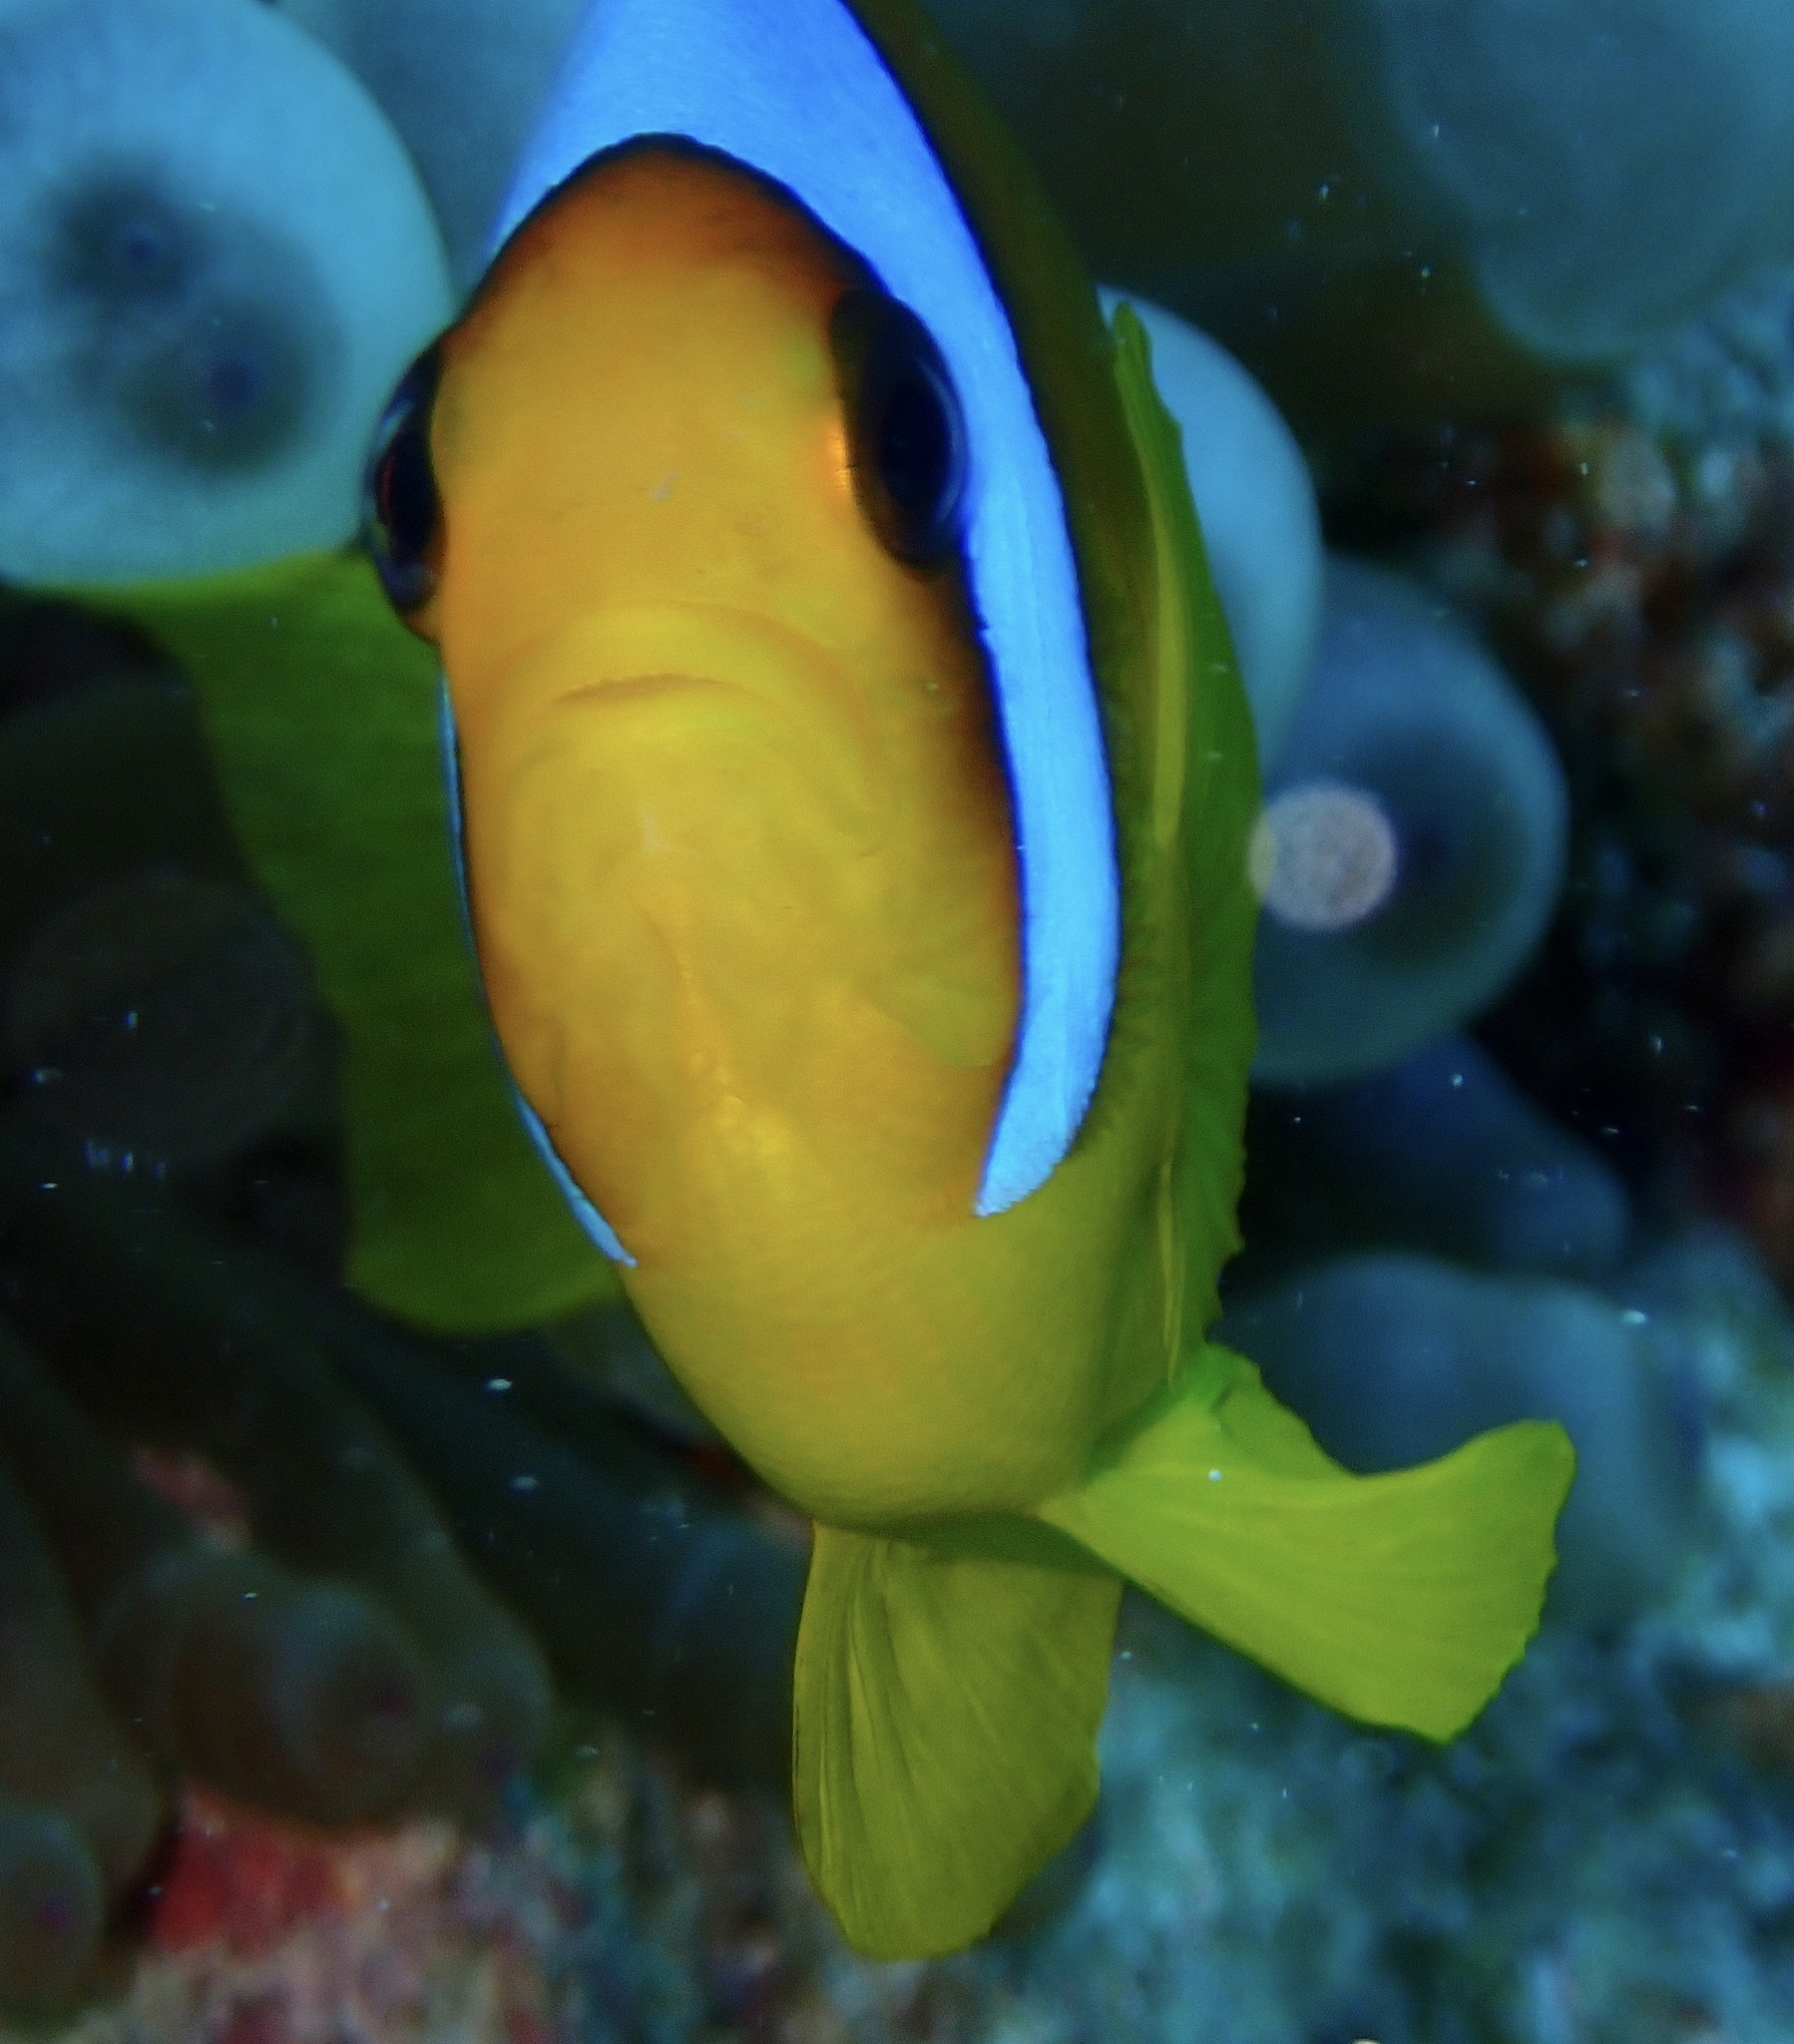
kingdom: Animalia
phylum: Chordata
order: Perciformes
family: Pomacentridae
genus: Amphiprion
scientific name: Amphiprion bicinctus
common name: Two-banded anemonefish
